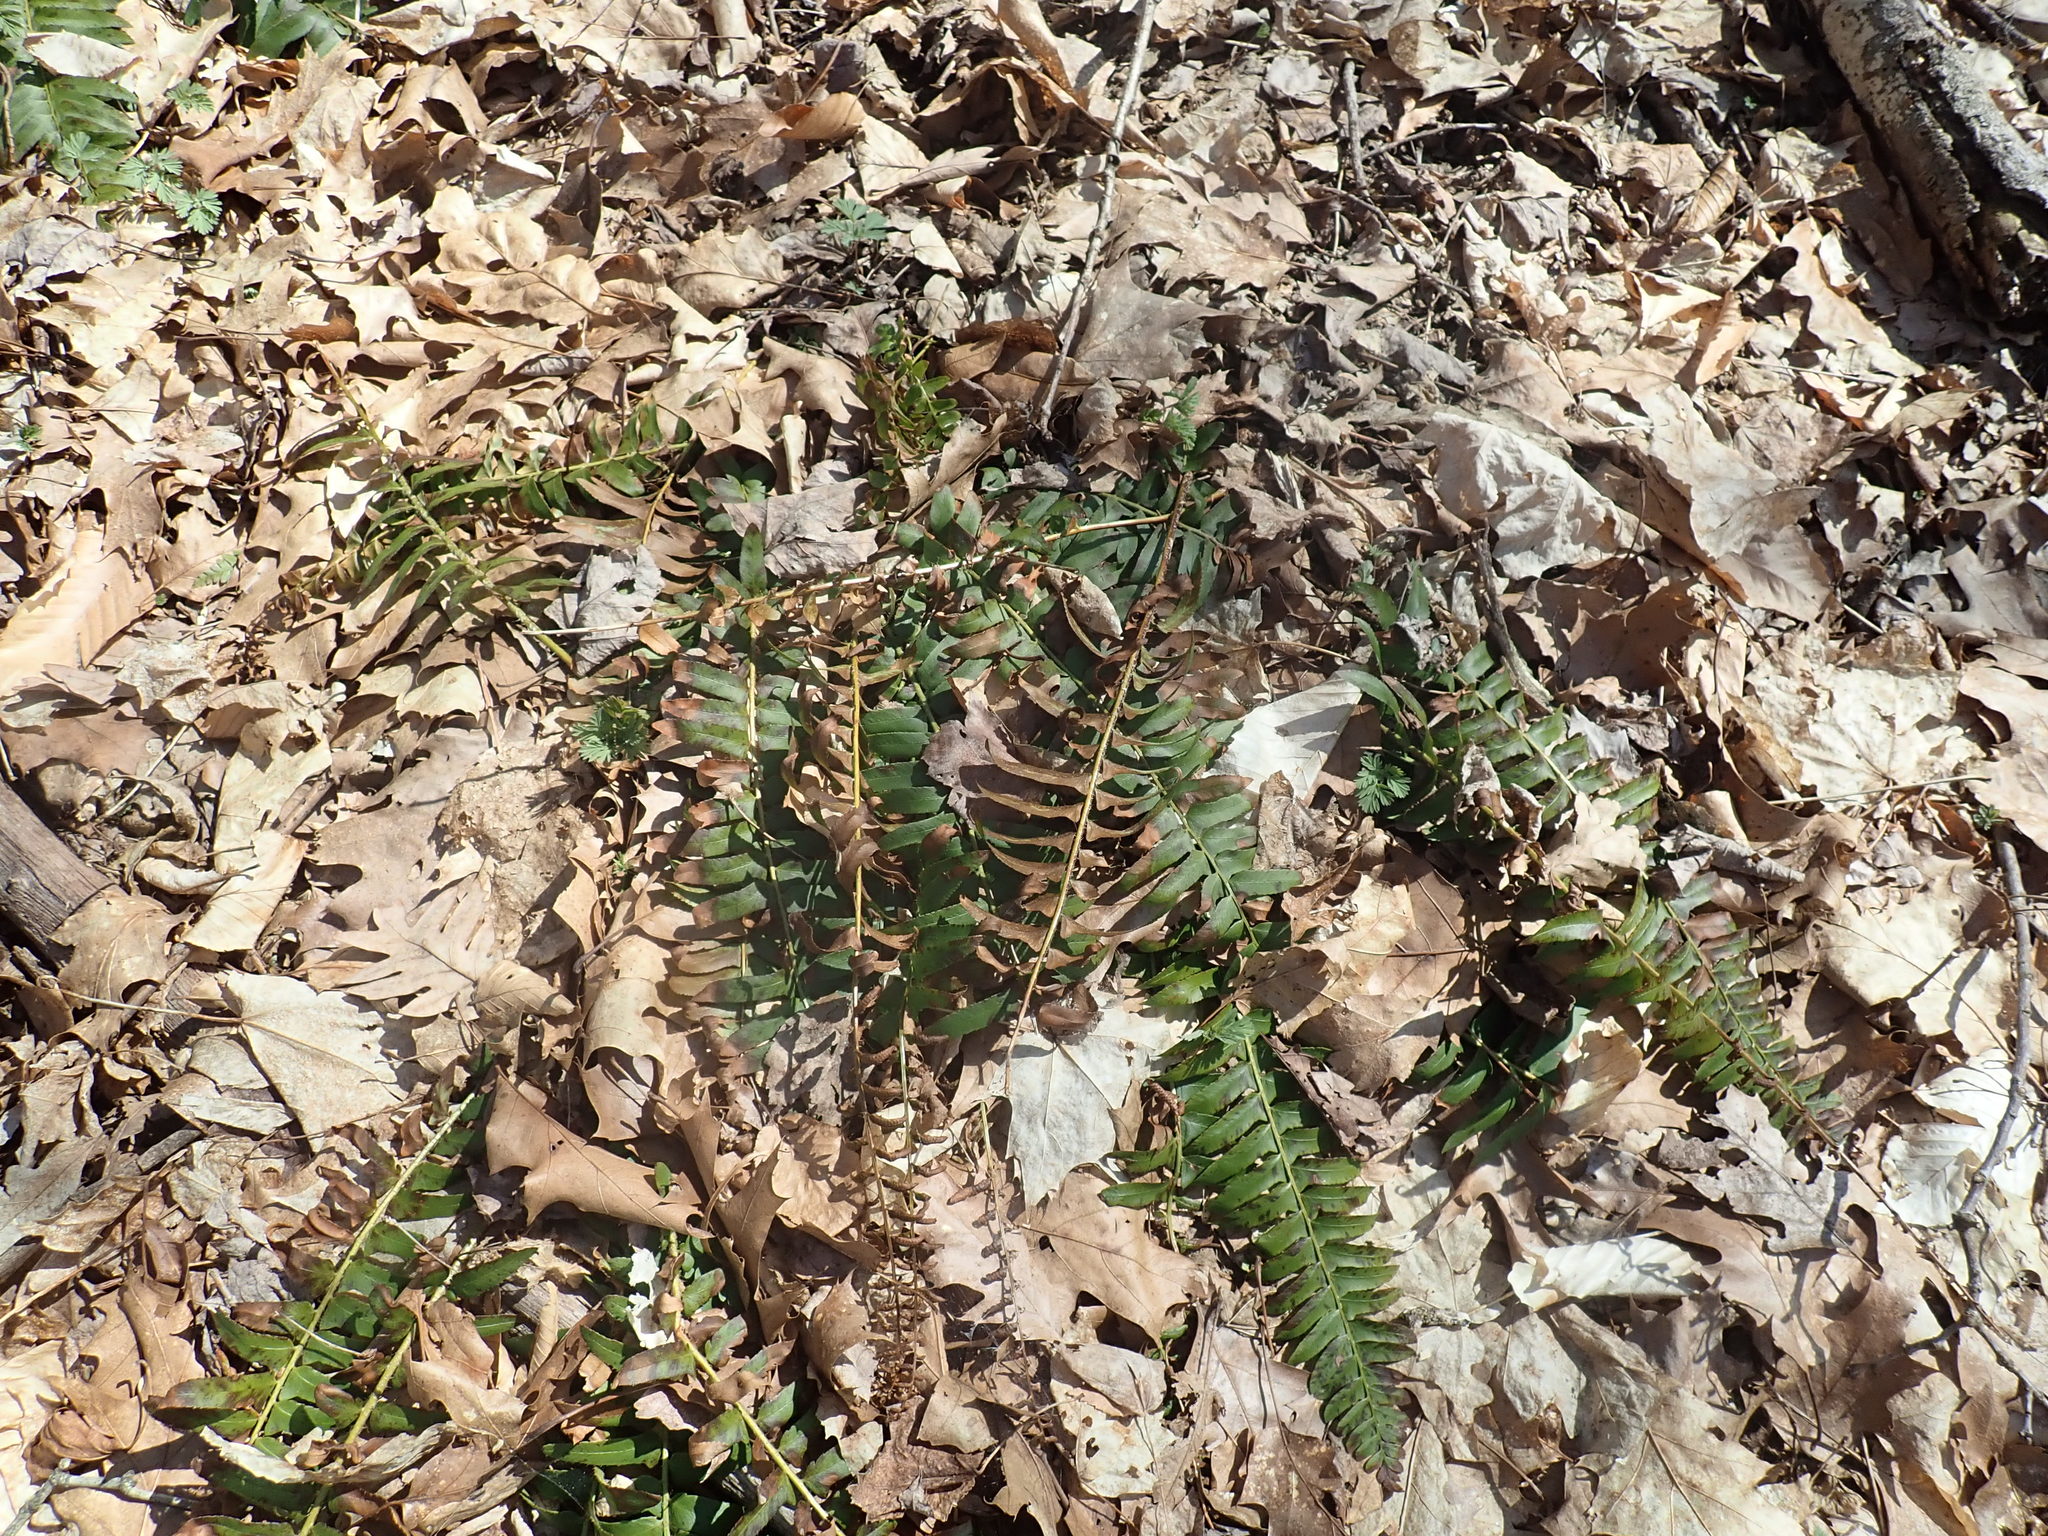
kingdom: Plantae
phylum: Tracheophyta
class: Polypodiopsida
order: Polypodiales
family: Dryopteridaceae
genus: Polystichum
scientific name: Polystichum acrostichoides
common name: Christmas fern
